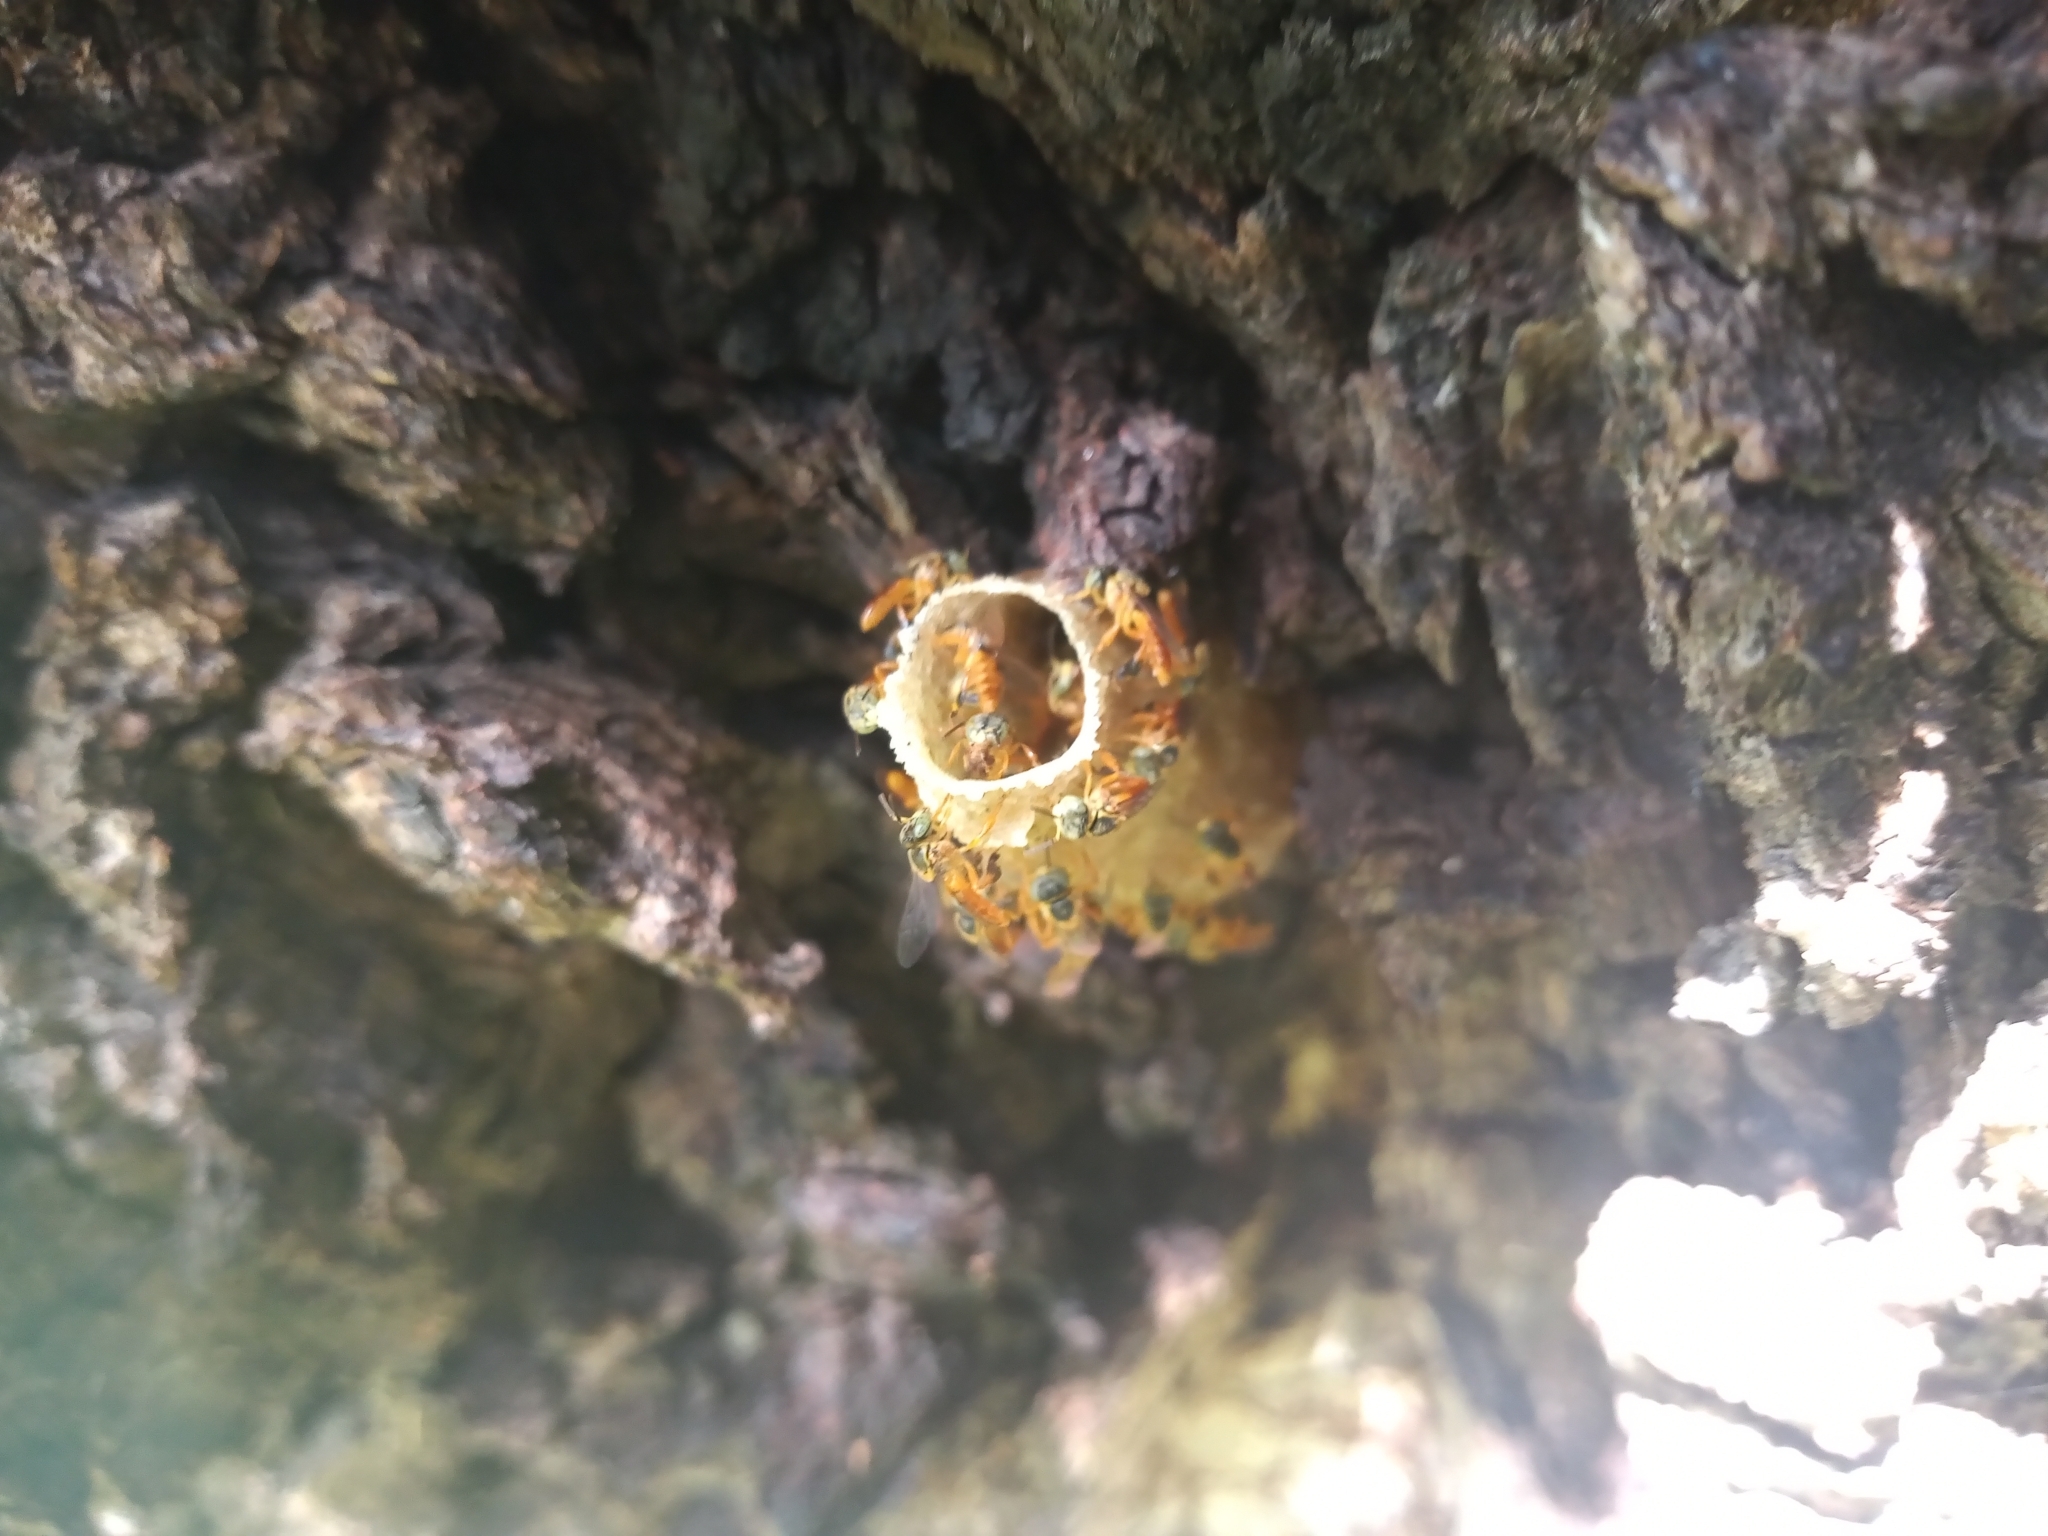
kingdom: Animalia
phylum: Arthropoda
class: Insecta
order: Hymenoptera
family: Apidae
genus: Tetragonisca
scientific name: Tetragonisca fiebrigi
